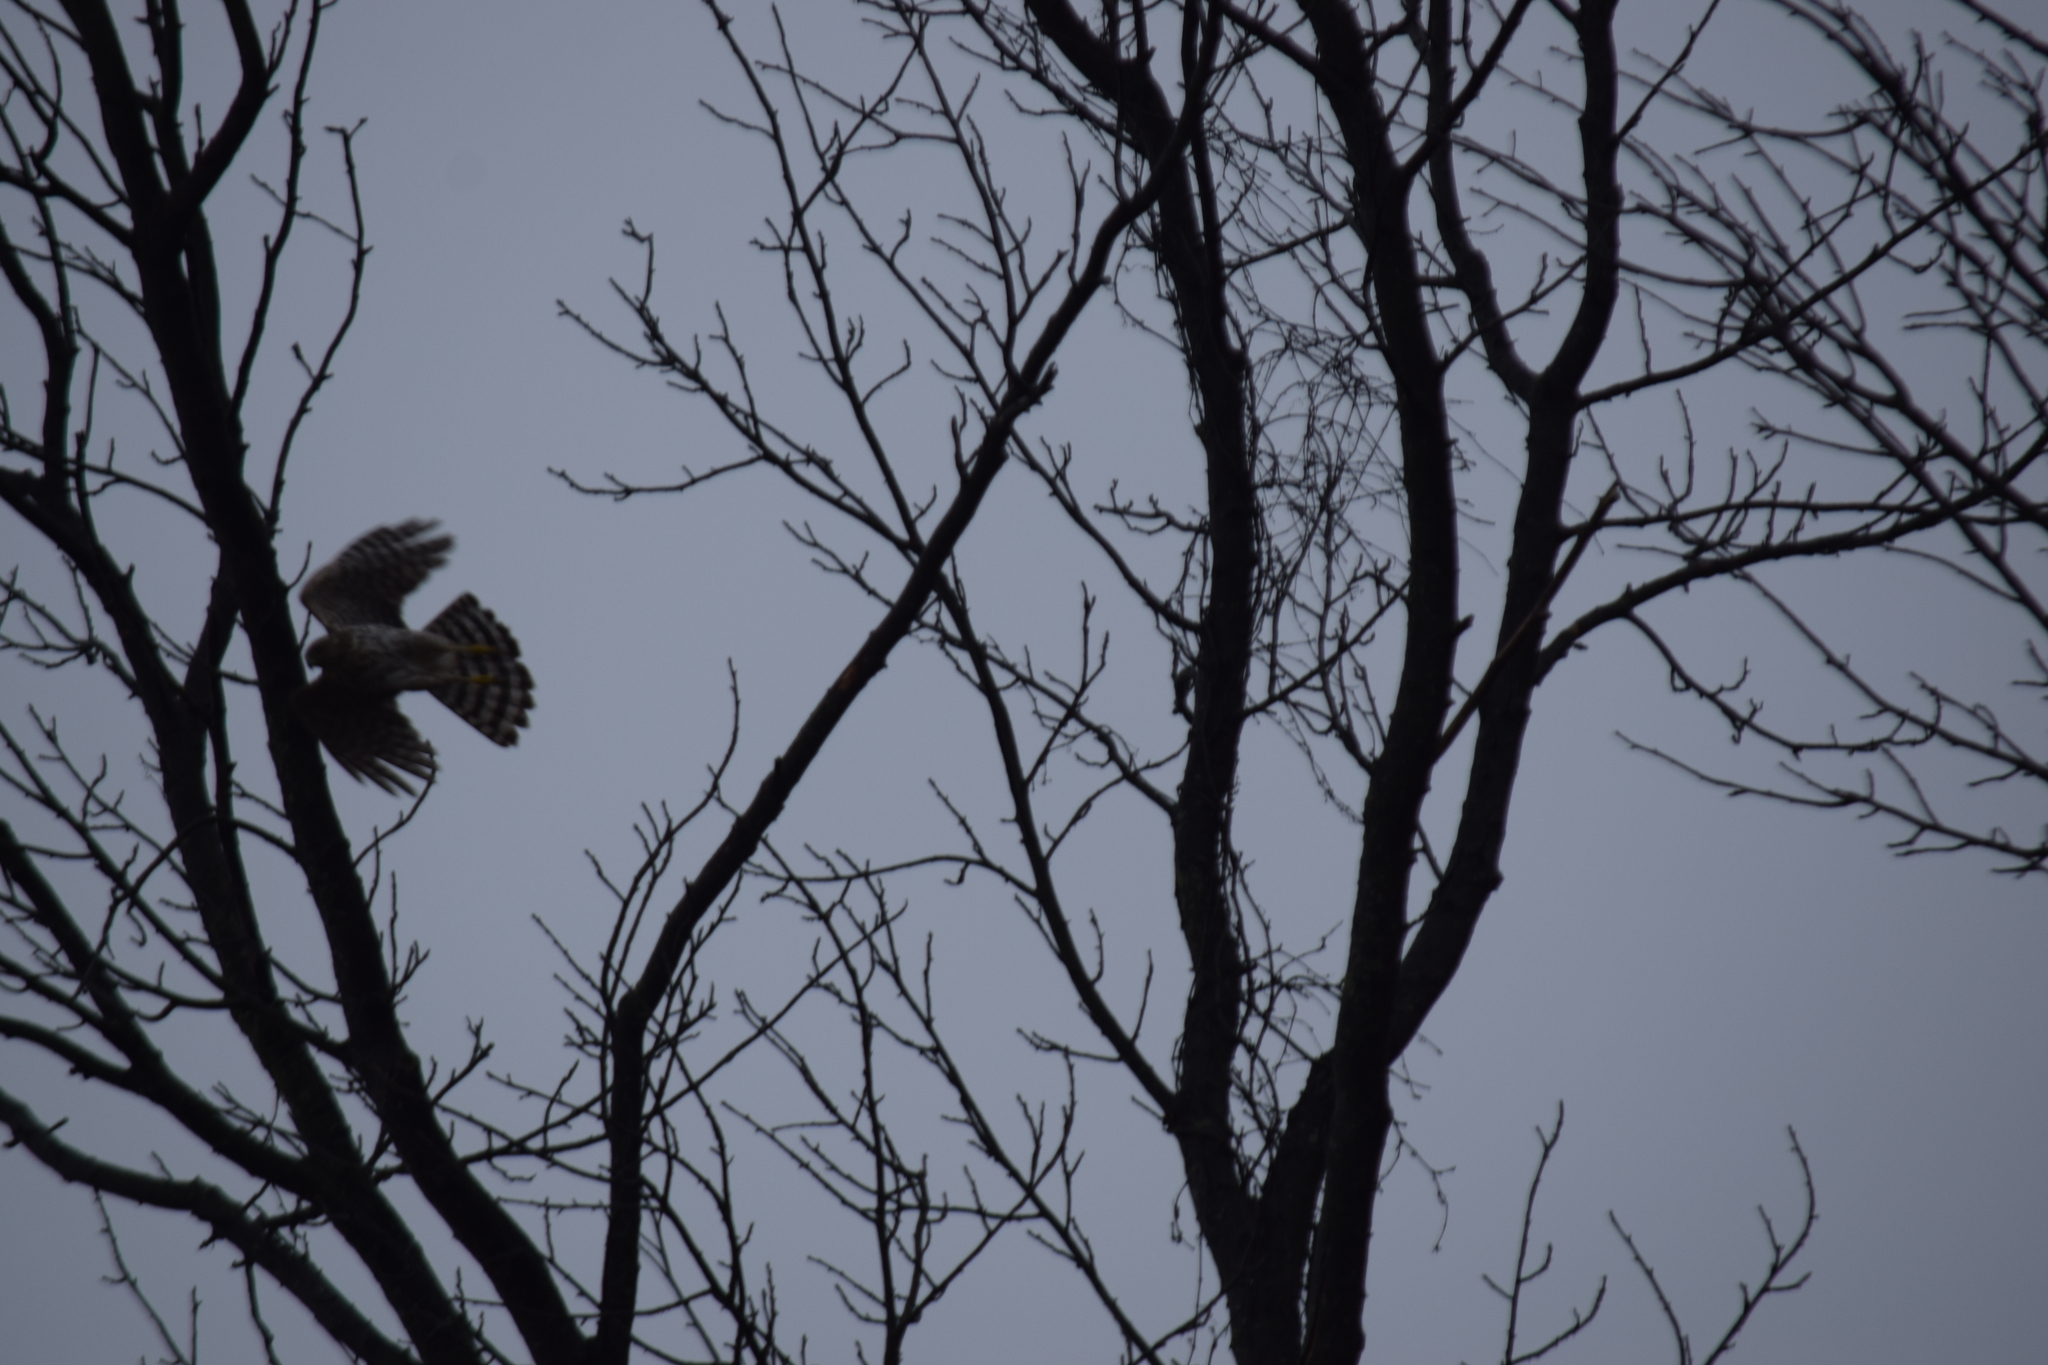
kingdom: Animalia
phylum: Chordata
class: Aves
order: Accipitriformes
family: Accipitridae
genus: Accipiter
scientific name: Accipiter cooperii
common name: Cooper's hawk
